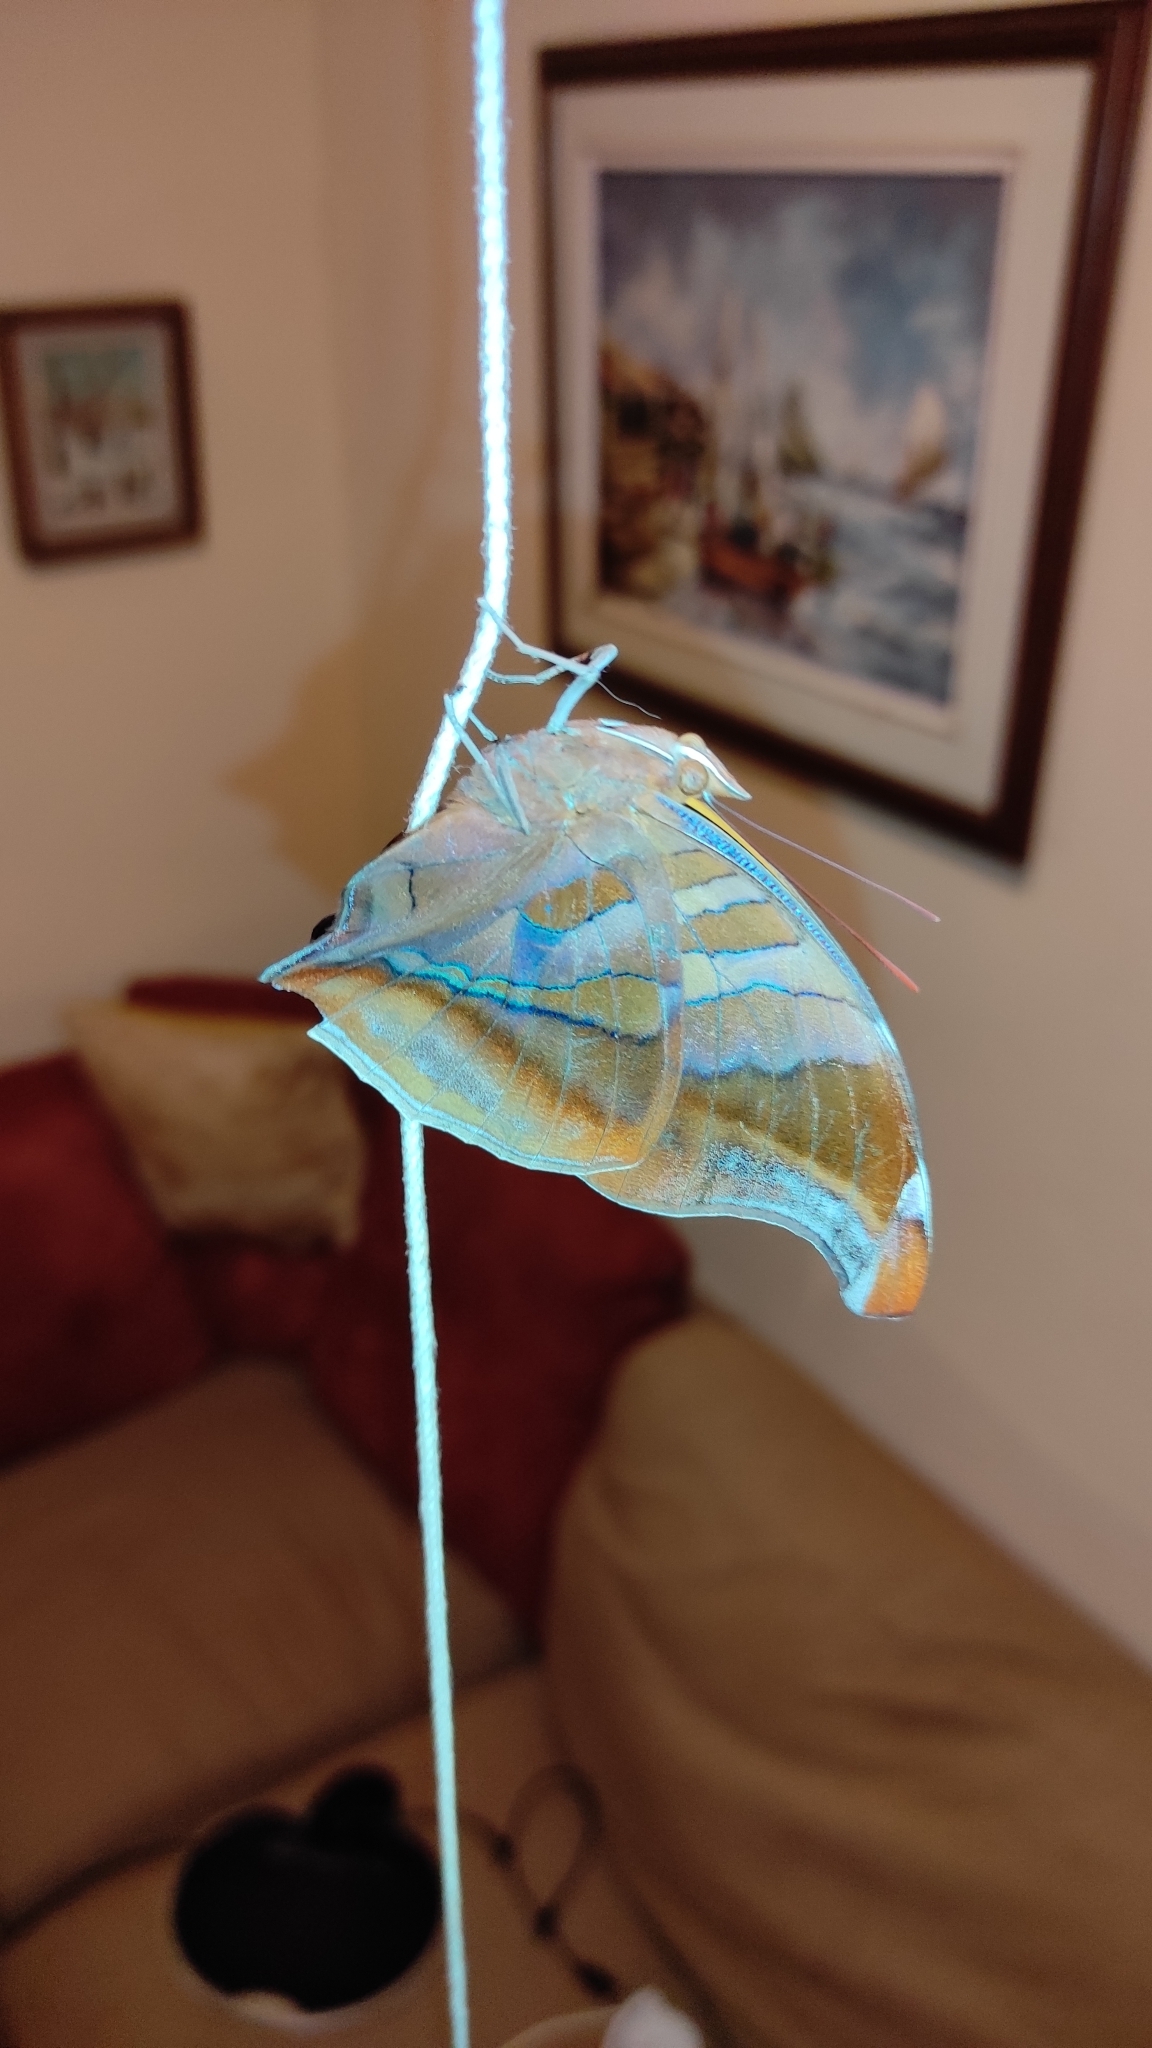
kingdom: Animalia
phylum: Arthropoda
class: Insecta
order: Lepidoptera
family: Nymphalidae
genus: Historis
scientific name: Historis odius
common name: Orion cecropian
